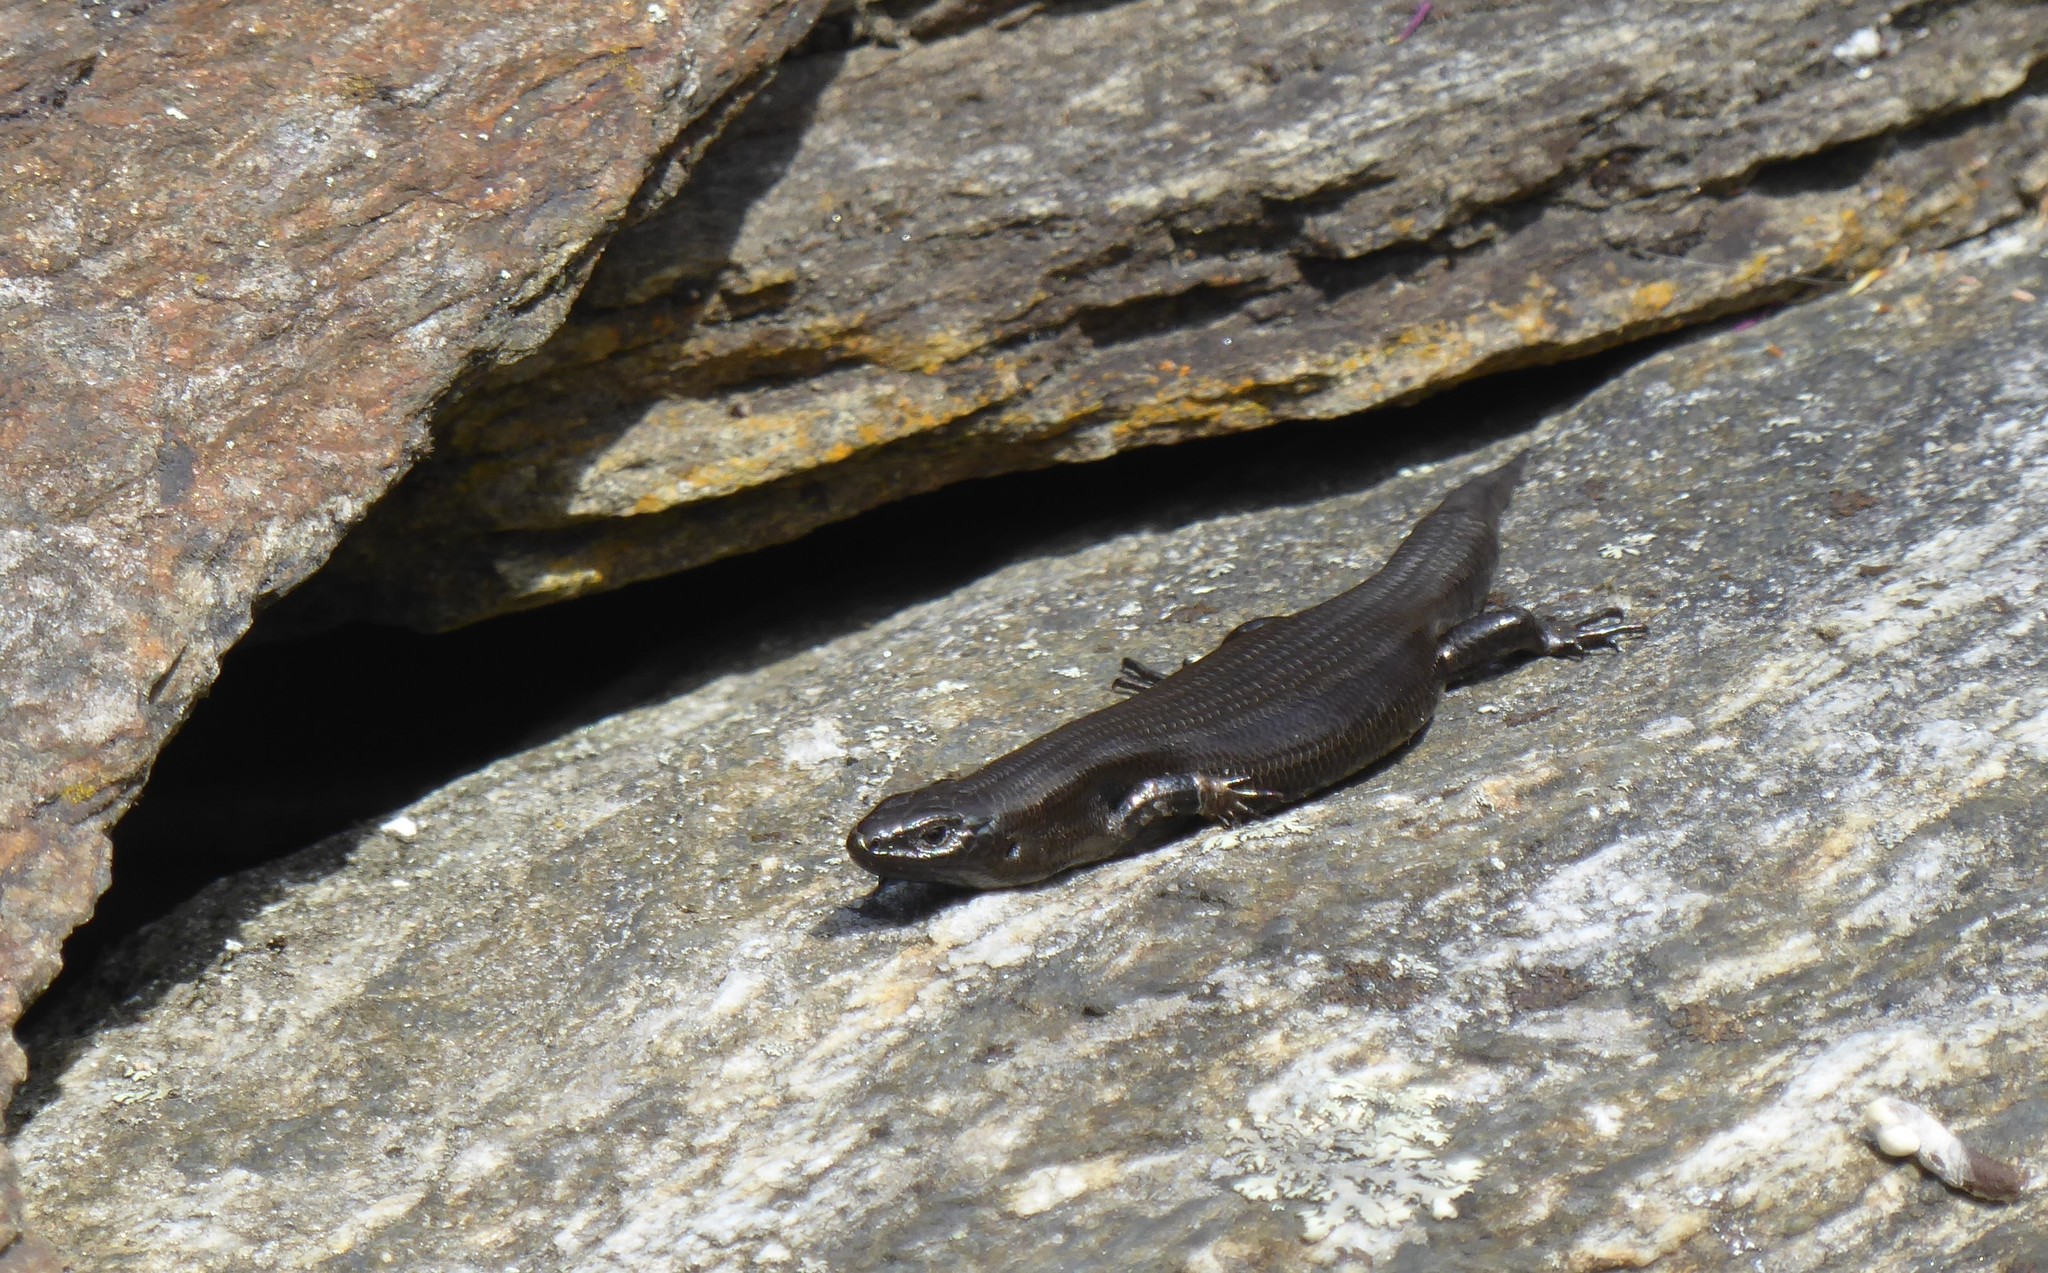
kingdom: Animalia
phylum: Chordata
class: Squamata
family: Scincidae
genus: Oligosoma
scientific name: Oligosoma polychroma
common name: Common new zealand skink
